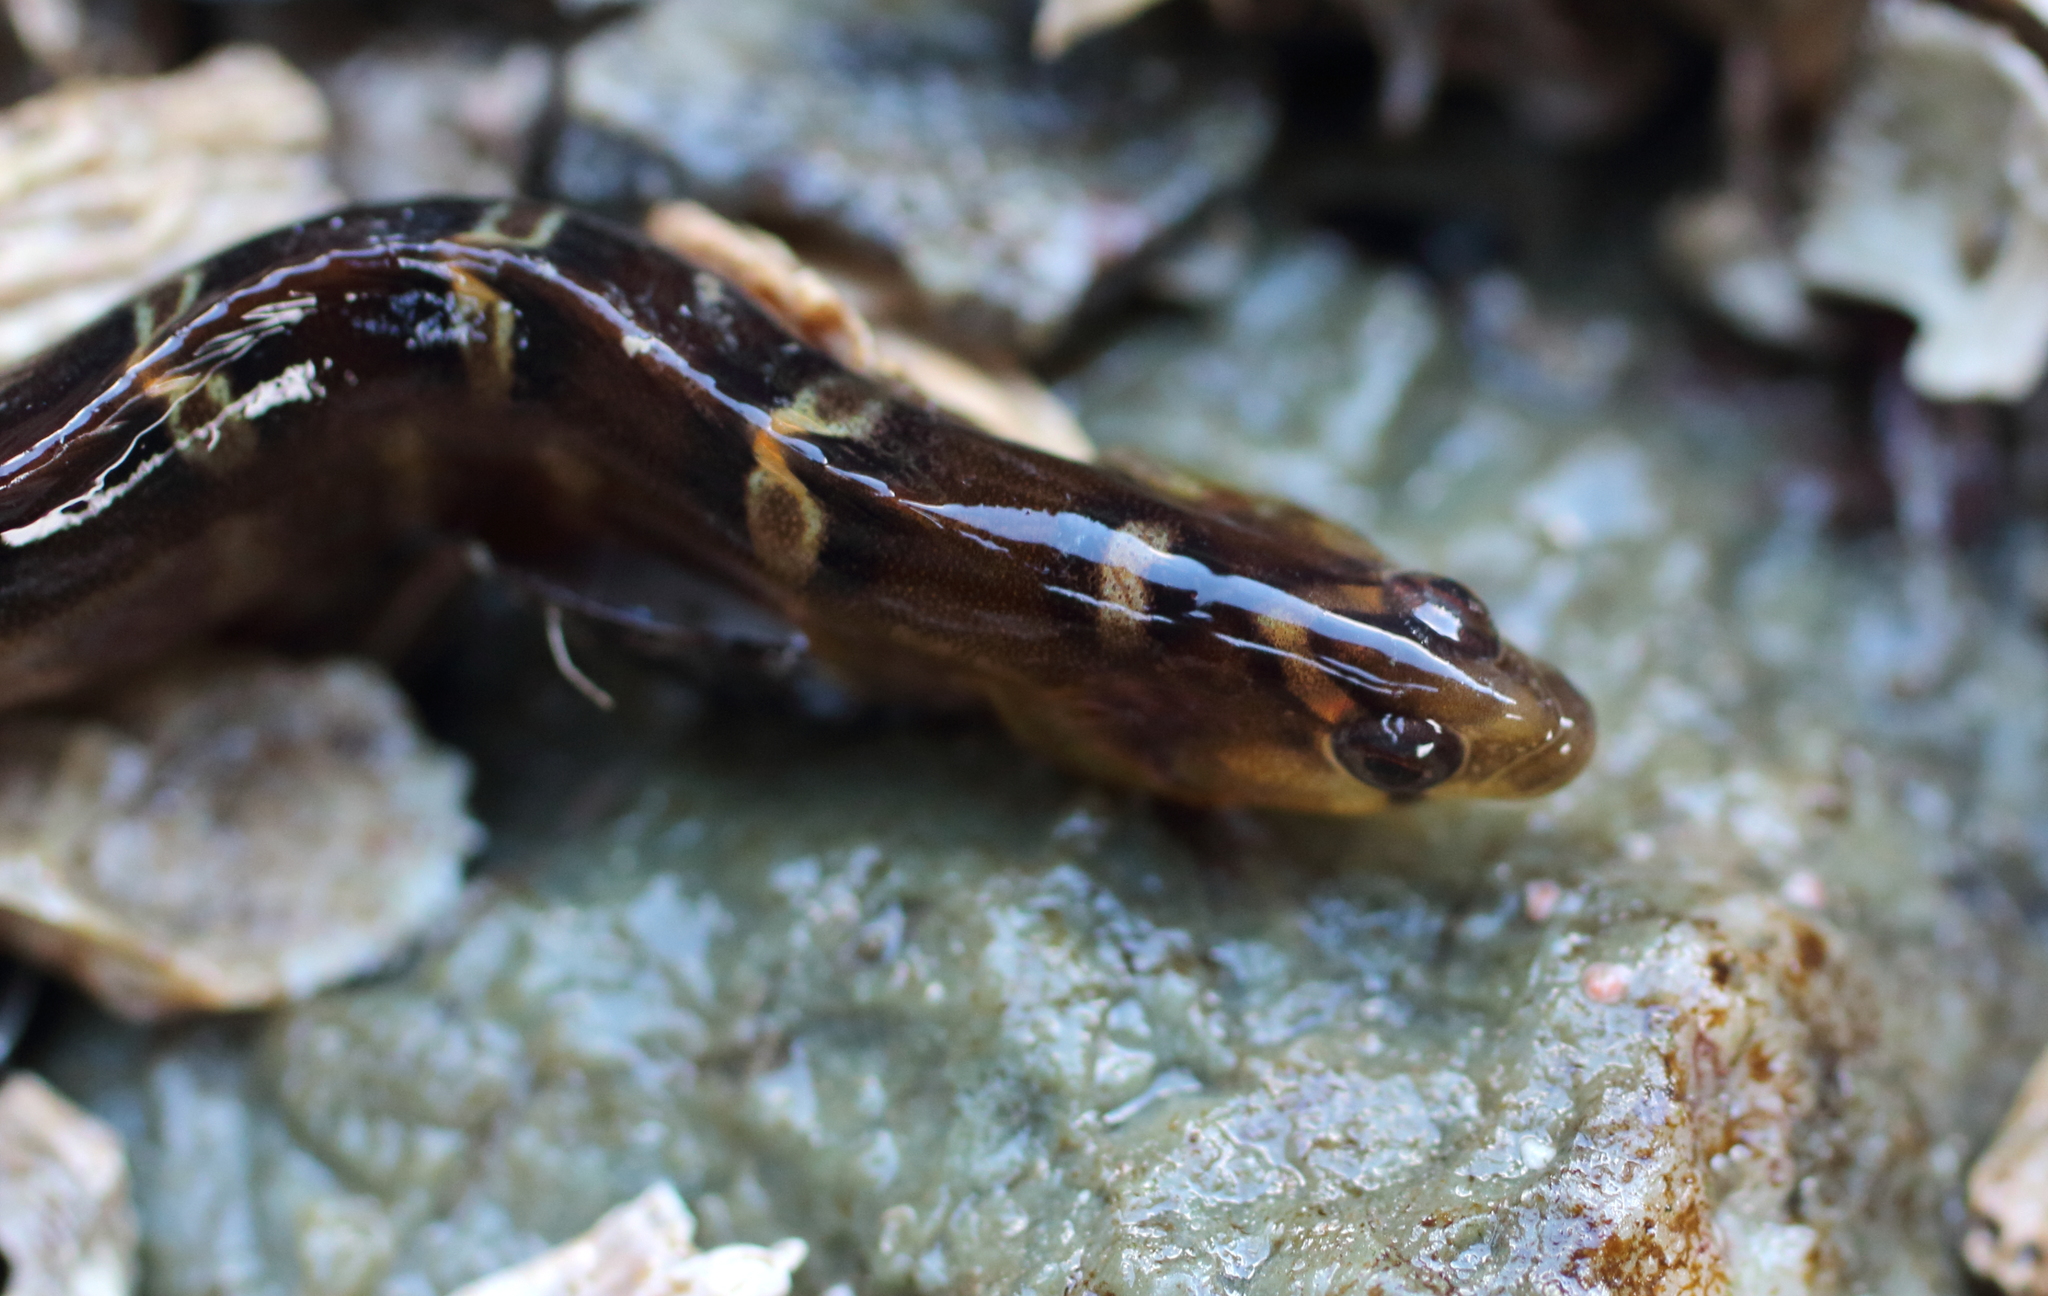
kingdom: Animalia
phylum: Chordata
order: Perciformes
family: Pholidae
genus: Pholis
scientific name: Pholis laeta
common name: Crescent gunnel
